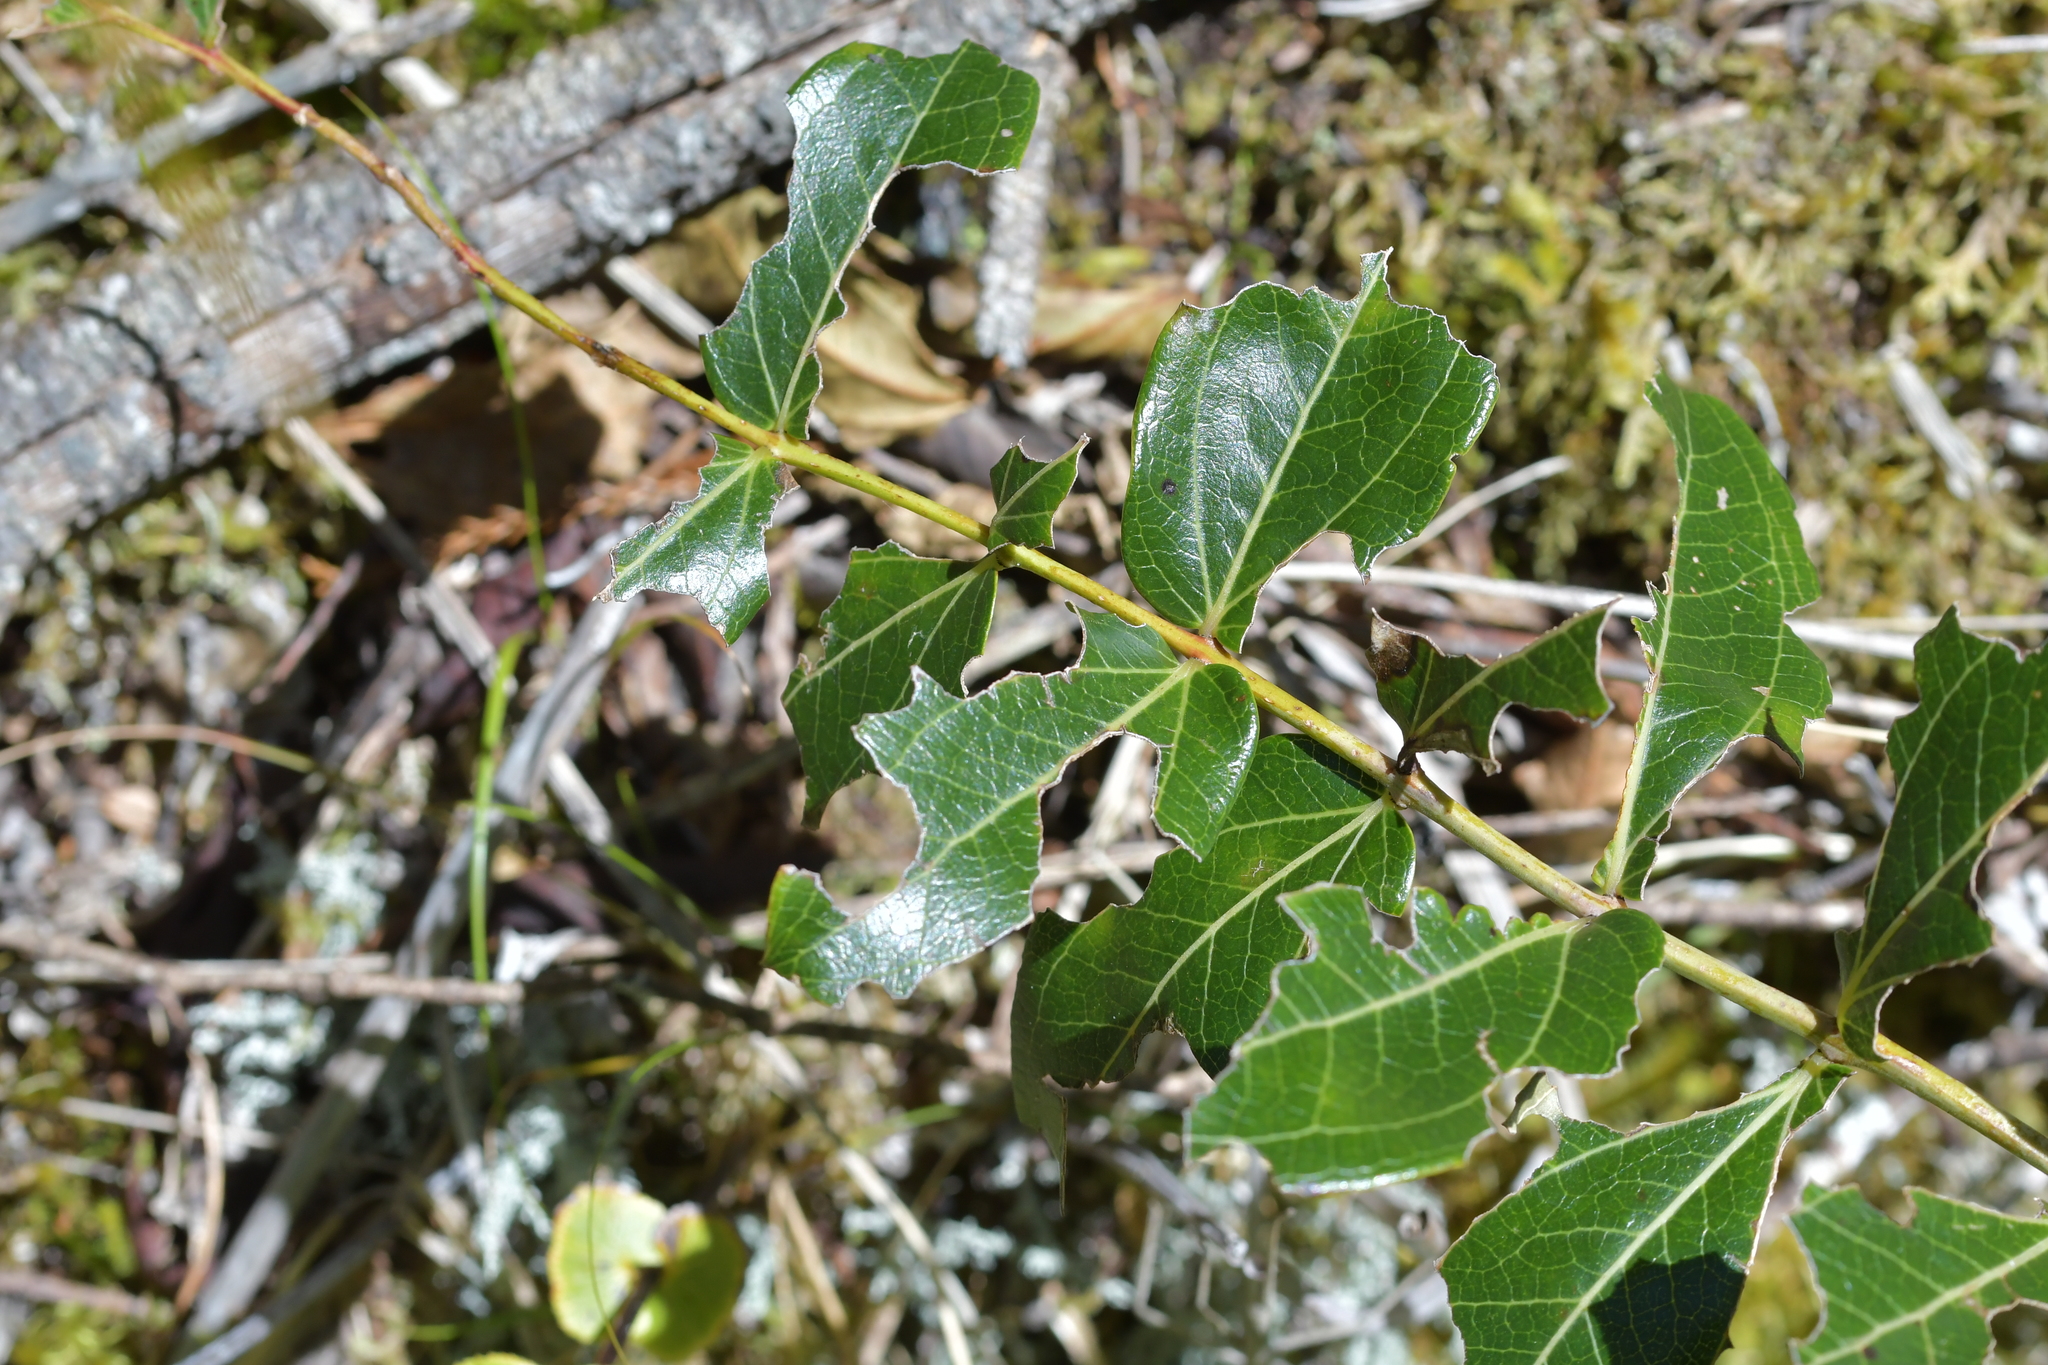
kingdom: Plantae
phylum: Tracheophyta
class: Magnoliopsida
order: Cucurbitales
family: Coriariaceae
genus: Coriaria
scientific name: Coriaria arborea
